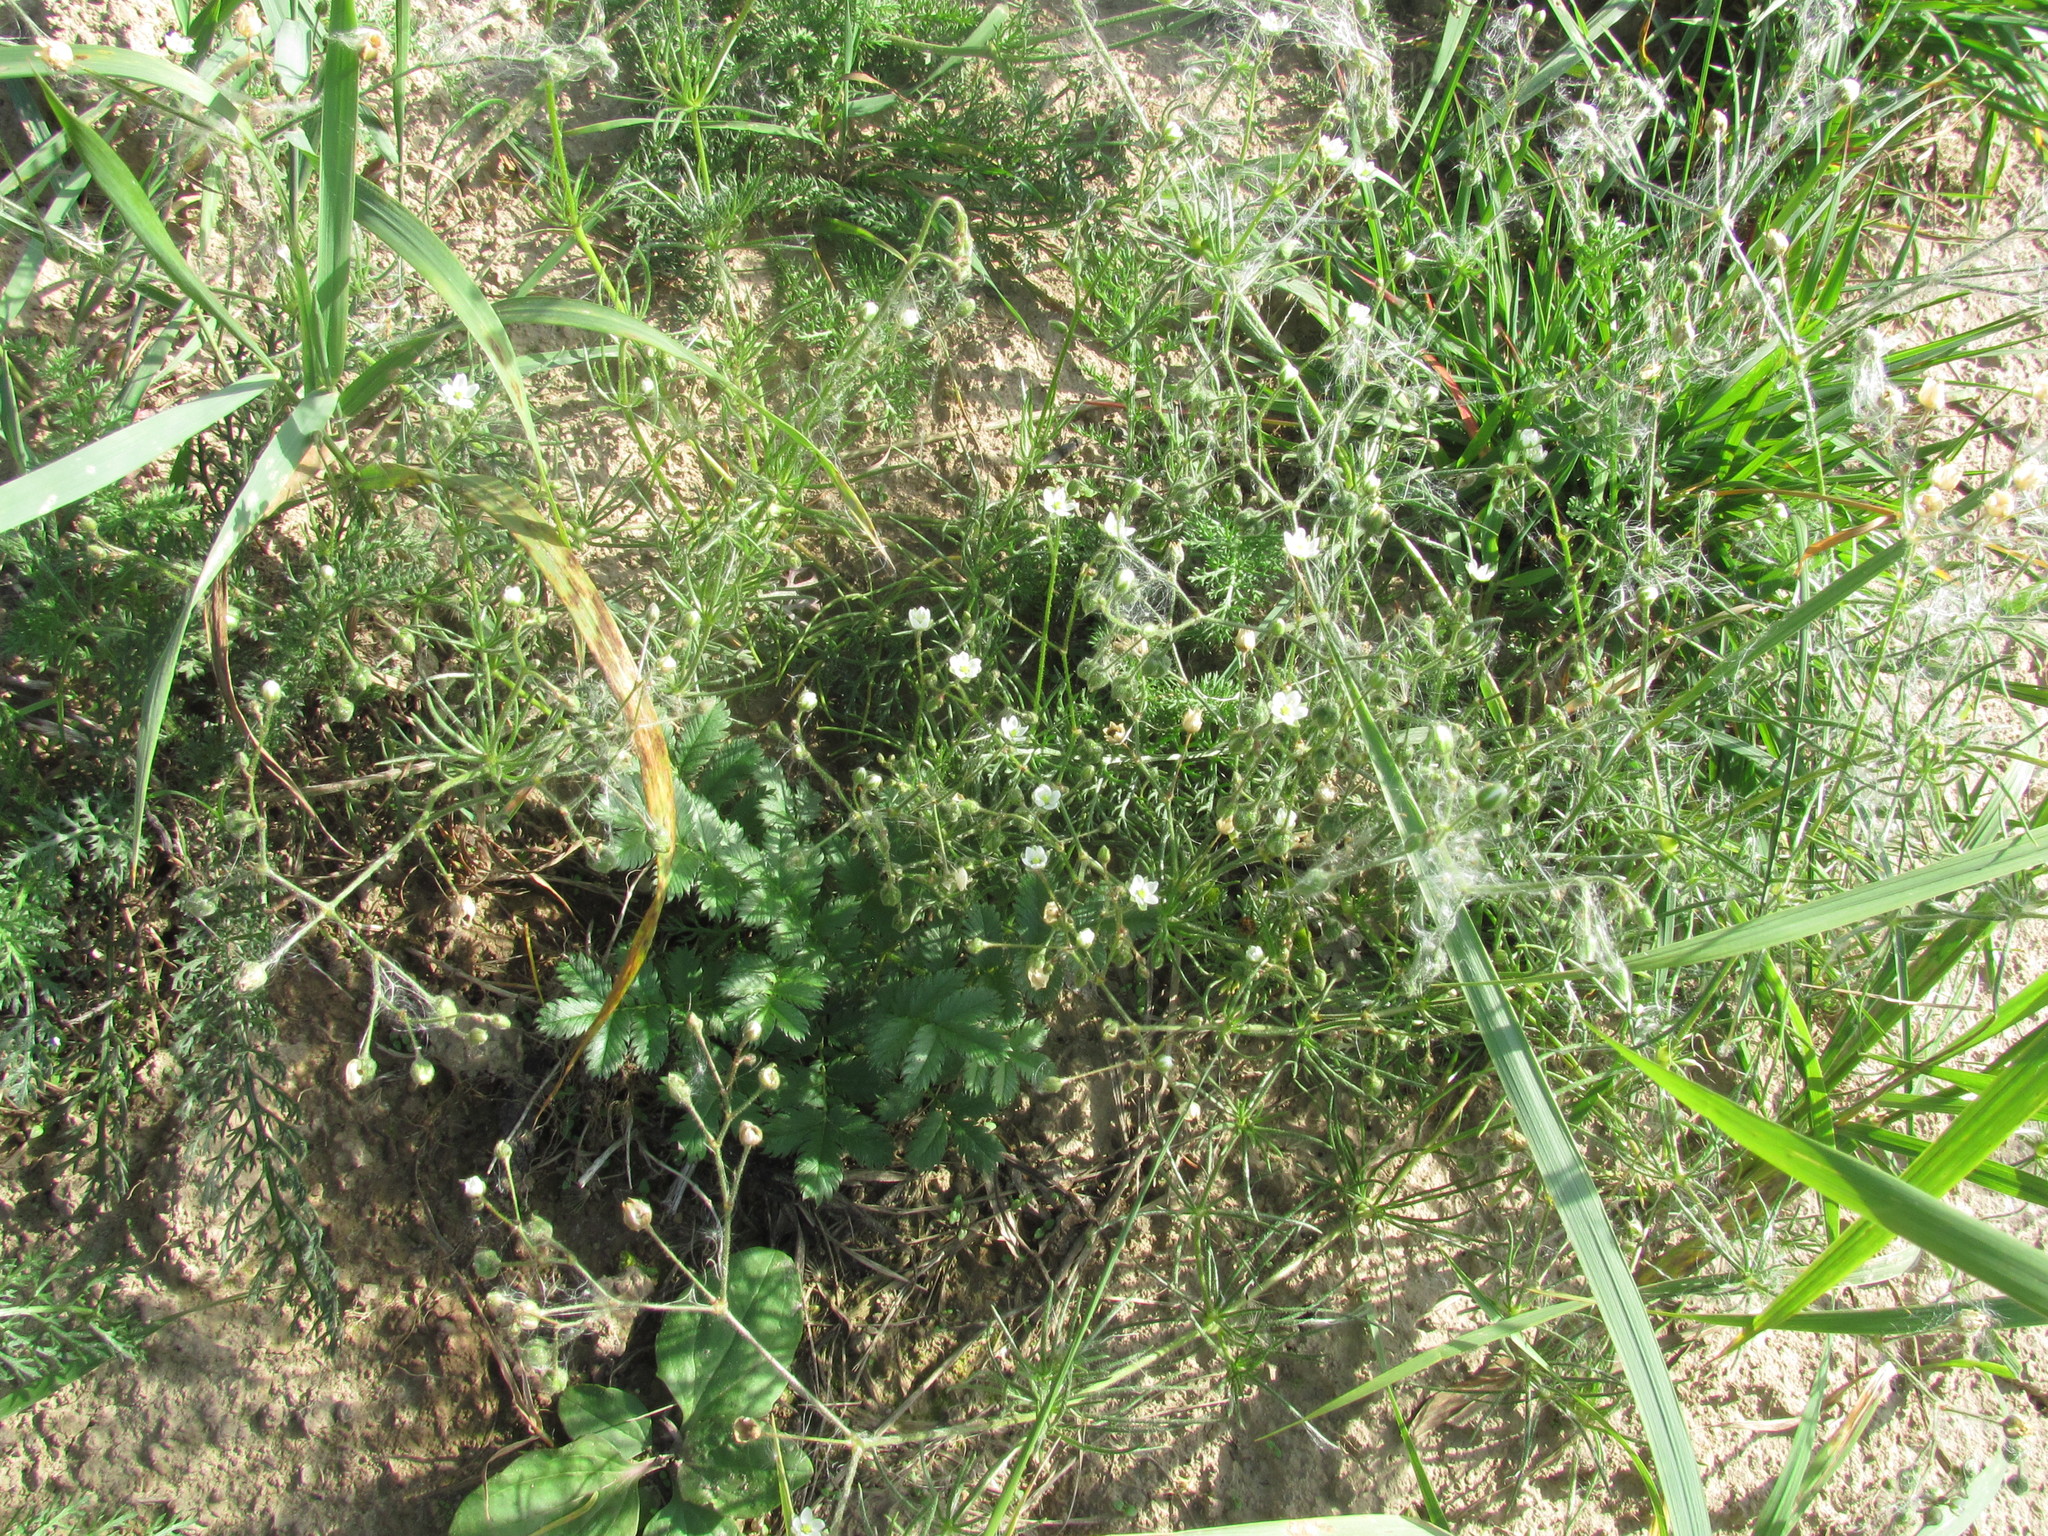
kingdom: Plantae
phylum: Tracheophyta
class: Magnoliopsida
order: Caryophyllales
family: Caryophyllaceae
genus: Spergula
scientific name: Spergula arvensis
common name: Corn spurrey
